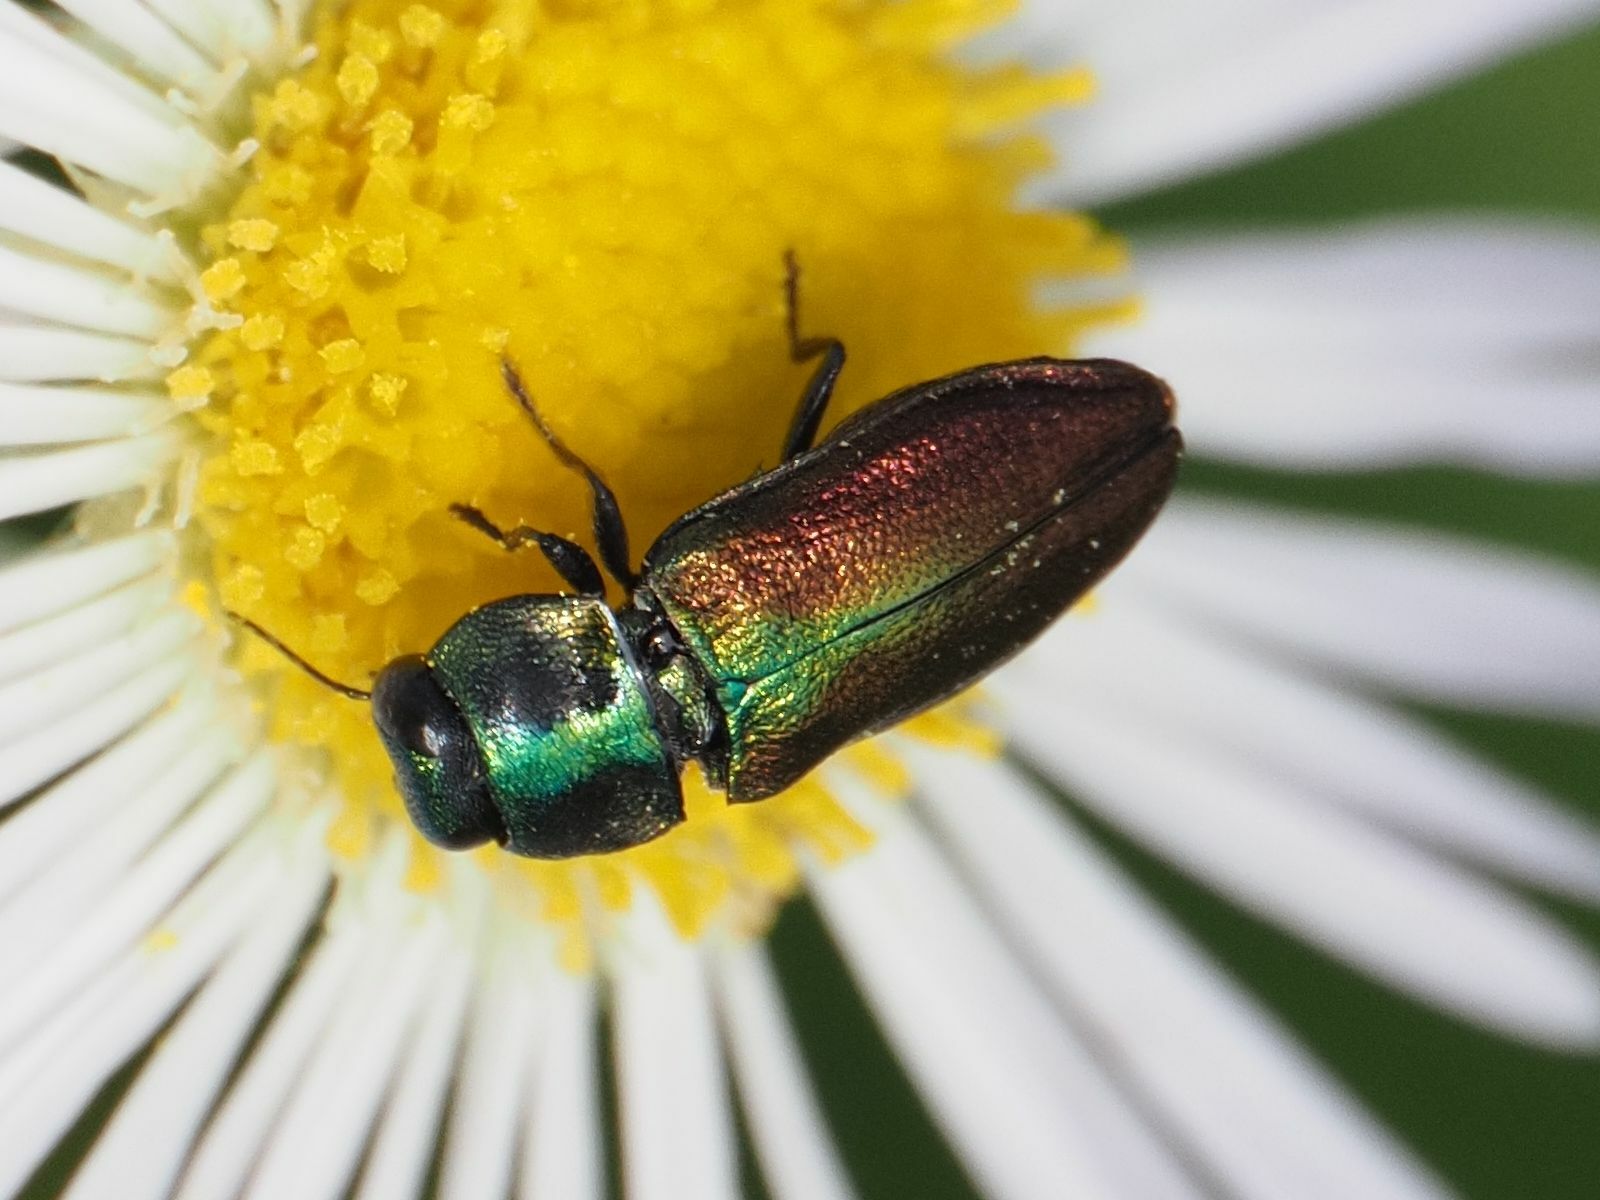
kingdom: Animalia
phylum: Arthropoda
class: Insecta
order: Coleoptera
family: Buprestidae
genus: Anthaxia
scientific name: Anthaxia podolica
